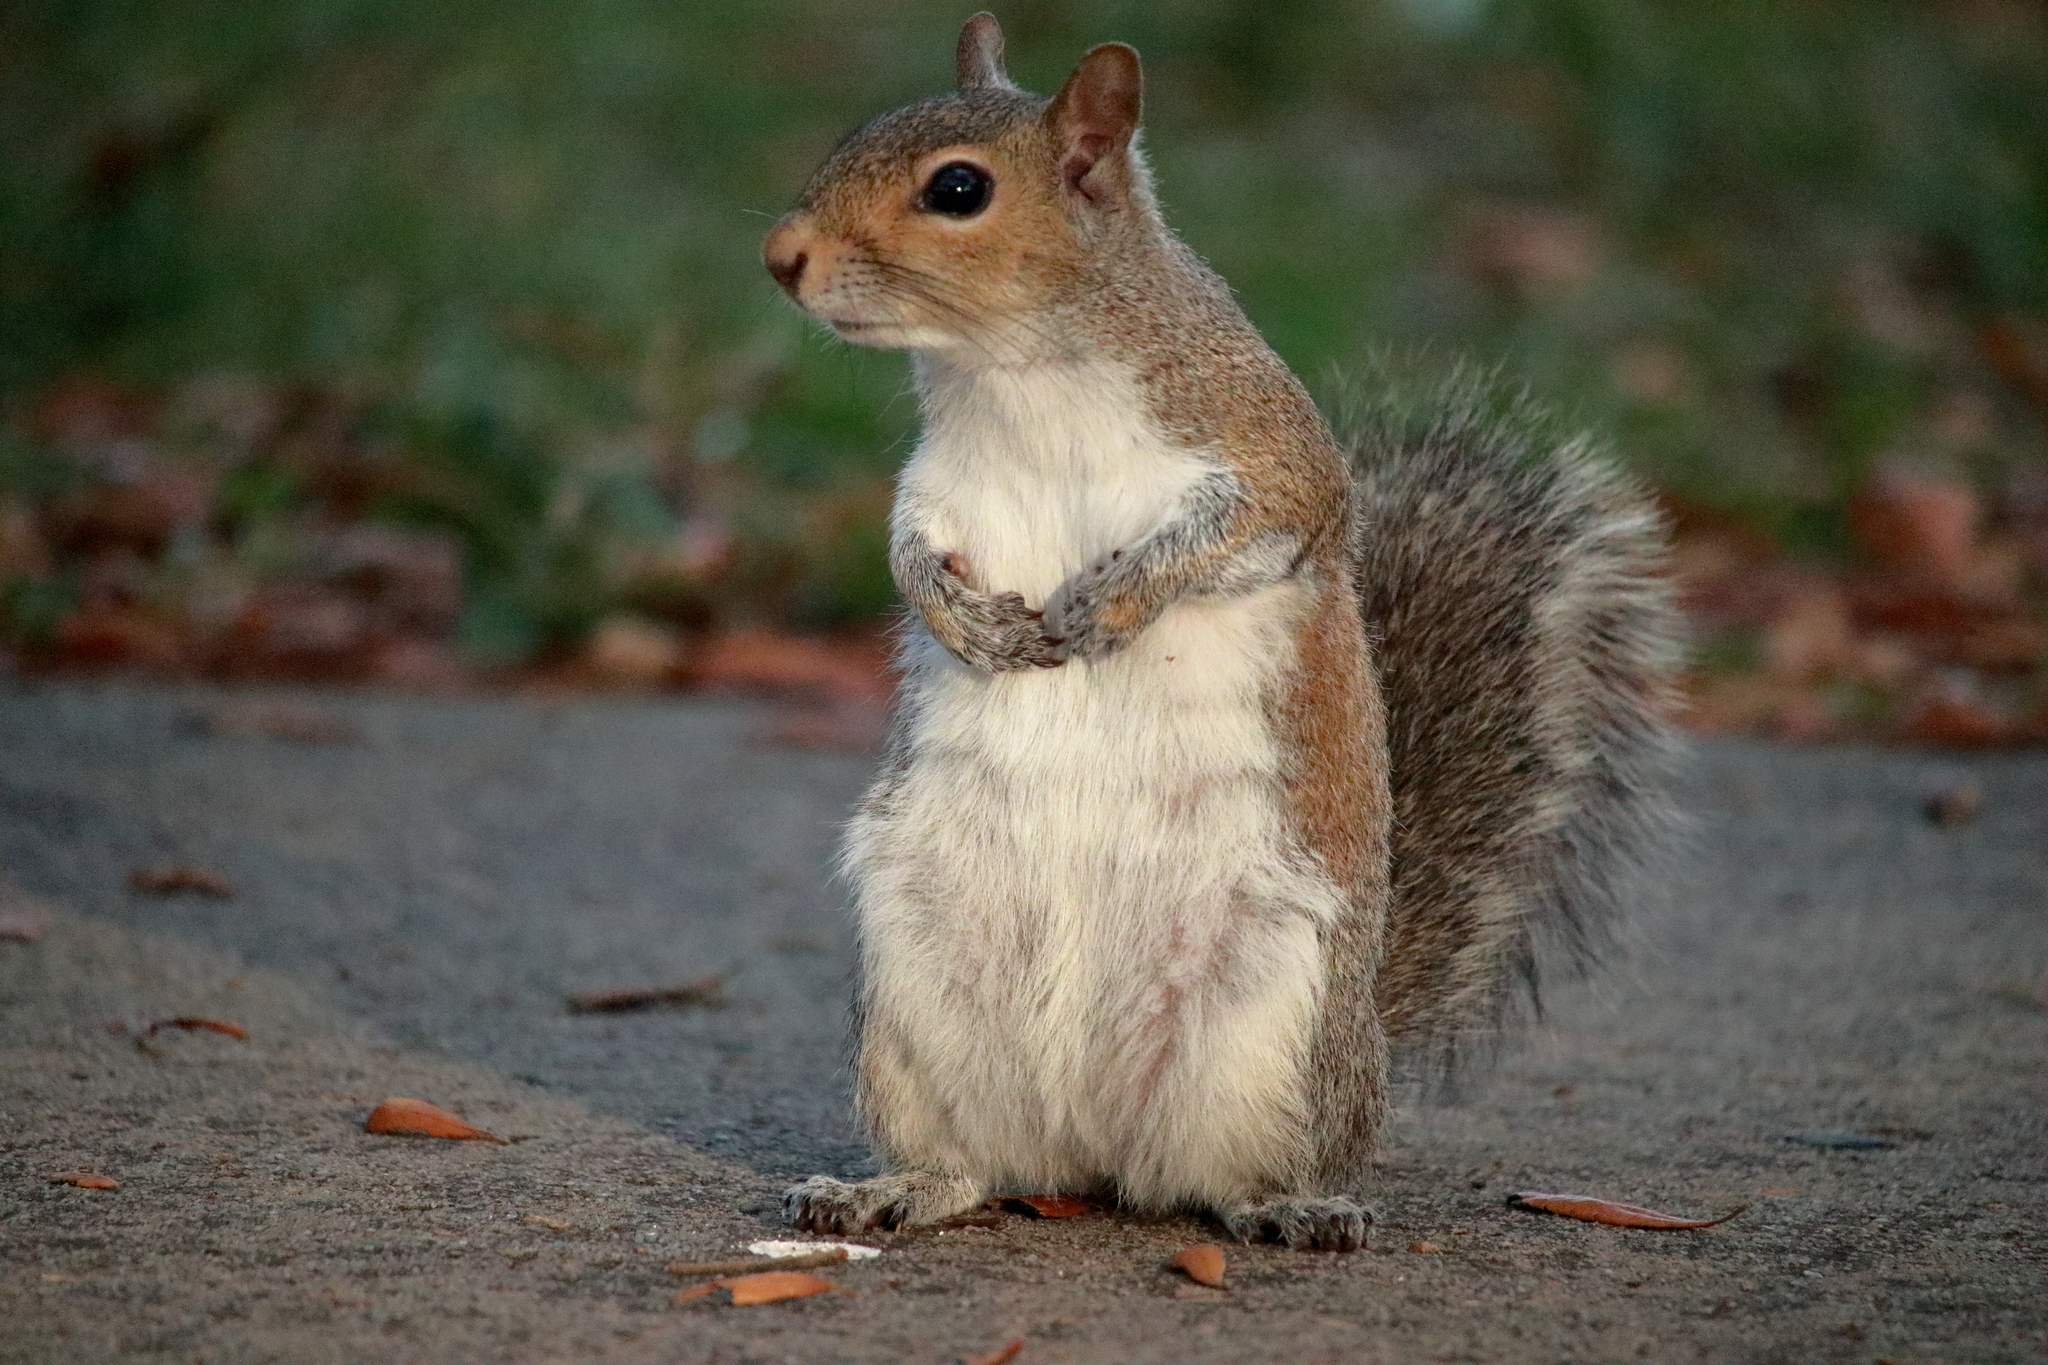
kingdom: Animalia
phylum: Chordata
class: Mammalia
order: Rodentia
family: Sciuridae
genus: Sciurus
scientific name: Sciurus carolinensis
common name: Eastern gray squirrel
